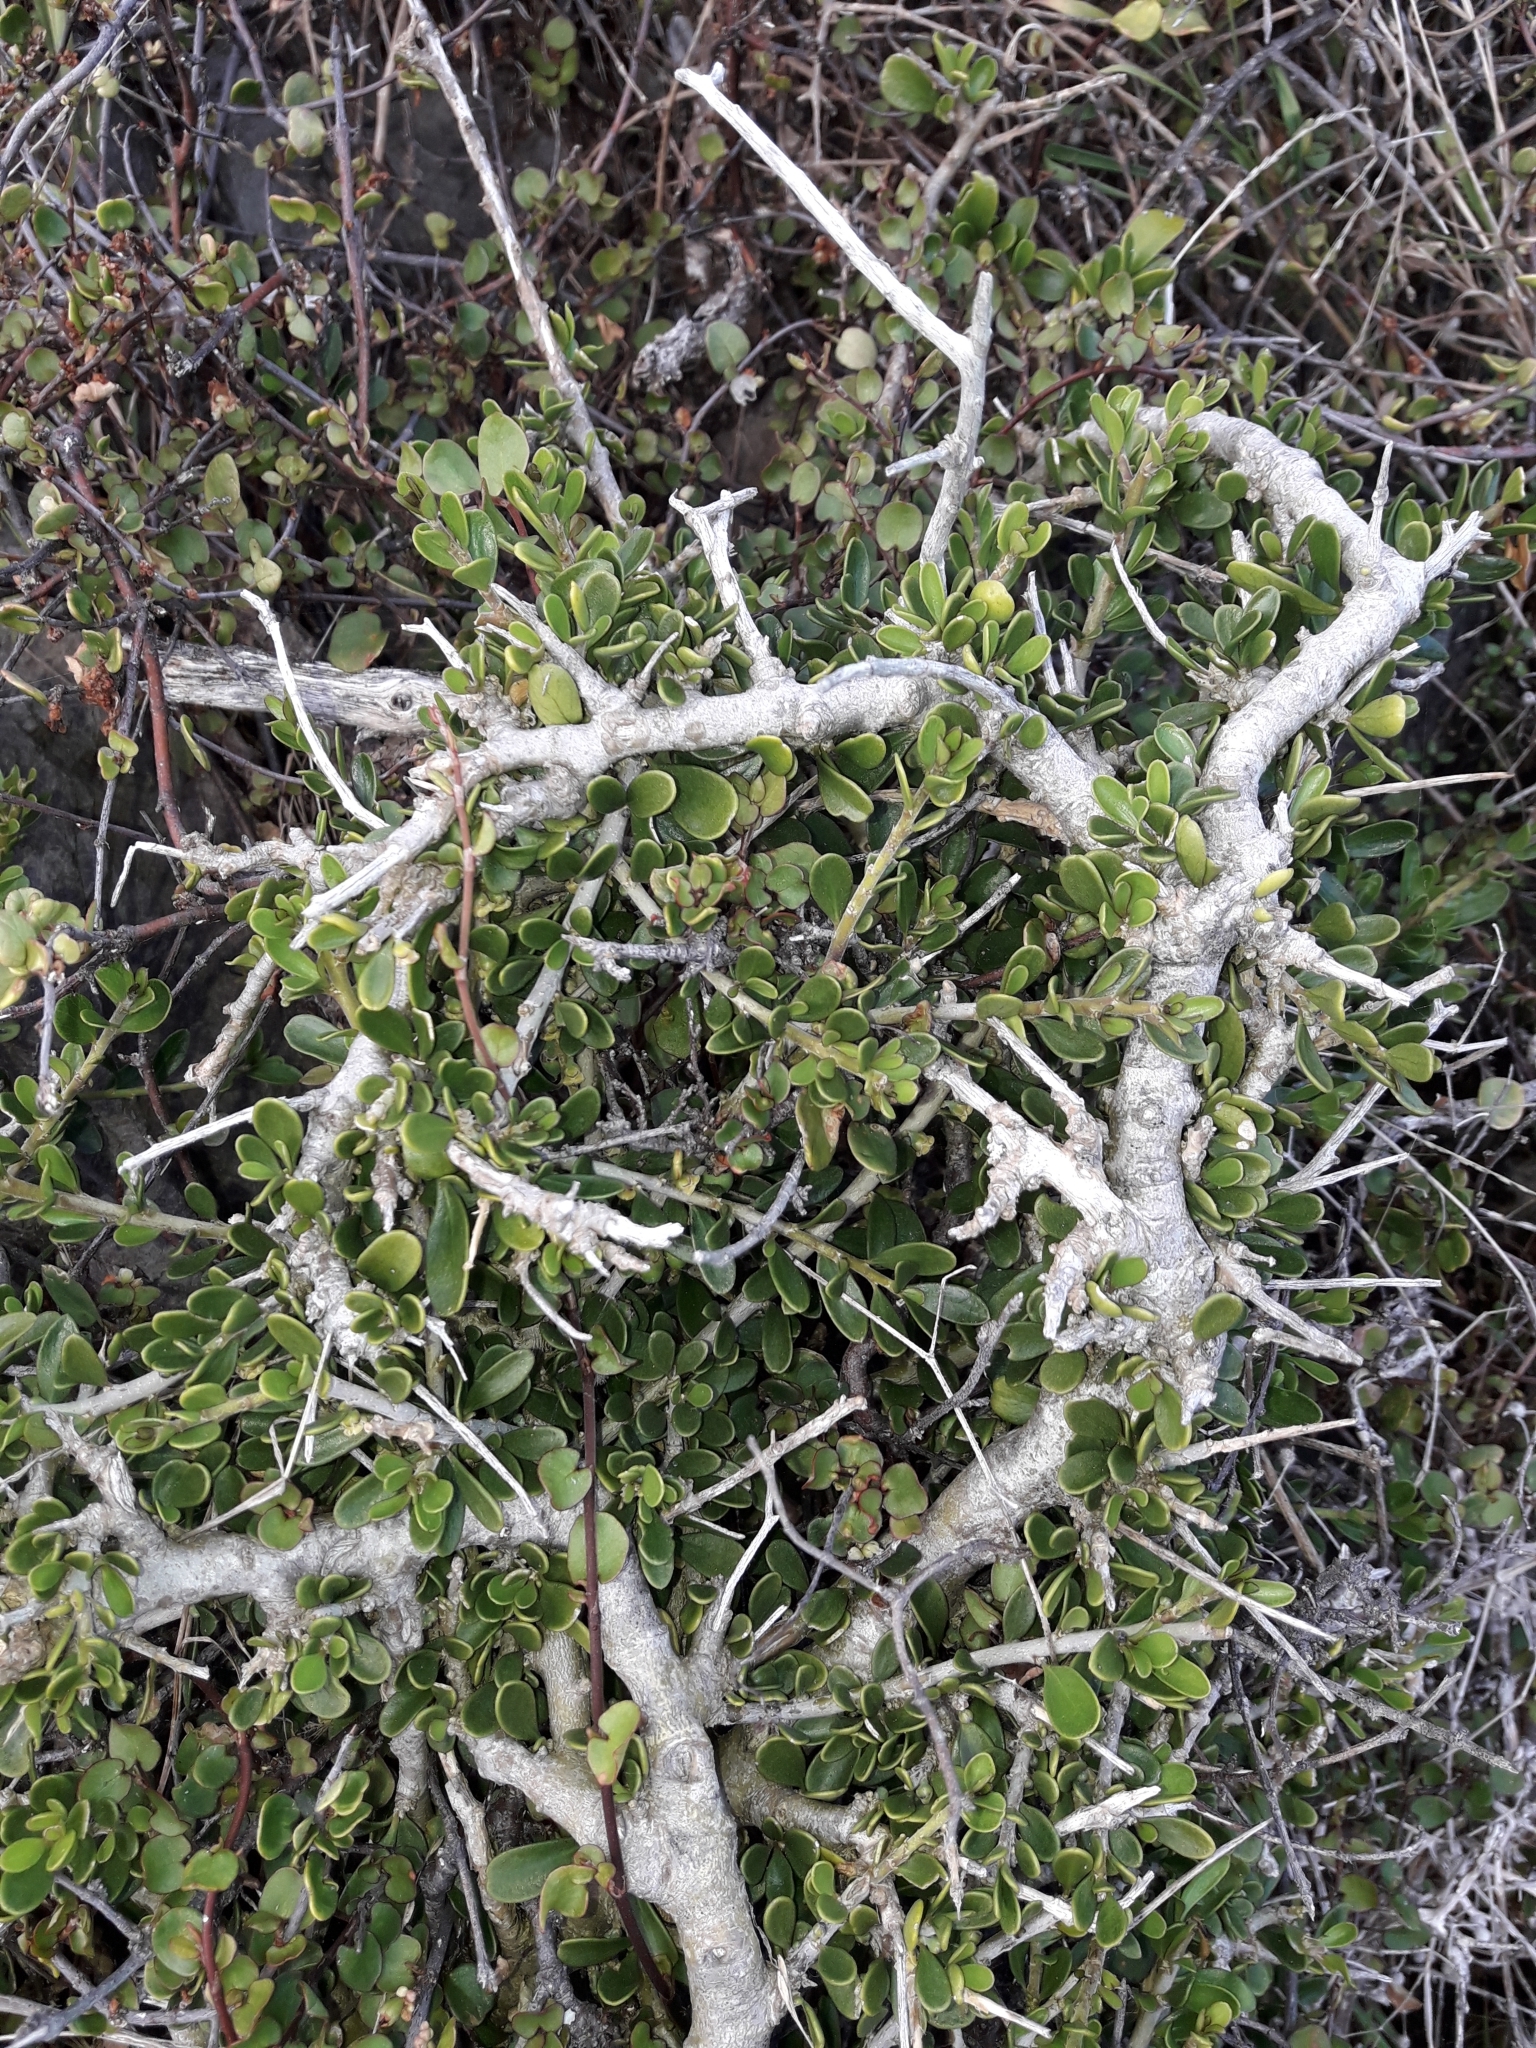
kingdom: Plantae
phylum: Tracheophyta
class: Magnoliopsida
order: Malpighiales
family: Violaceae
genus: Melicytus
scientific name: Melicytus crassifolius
